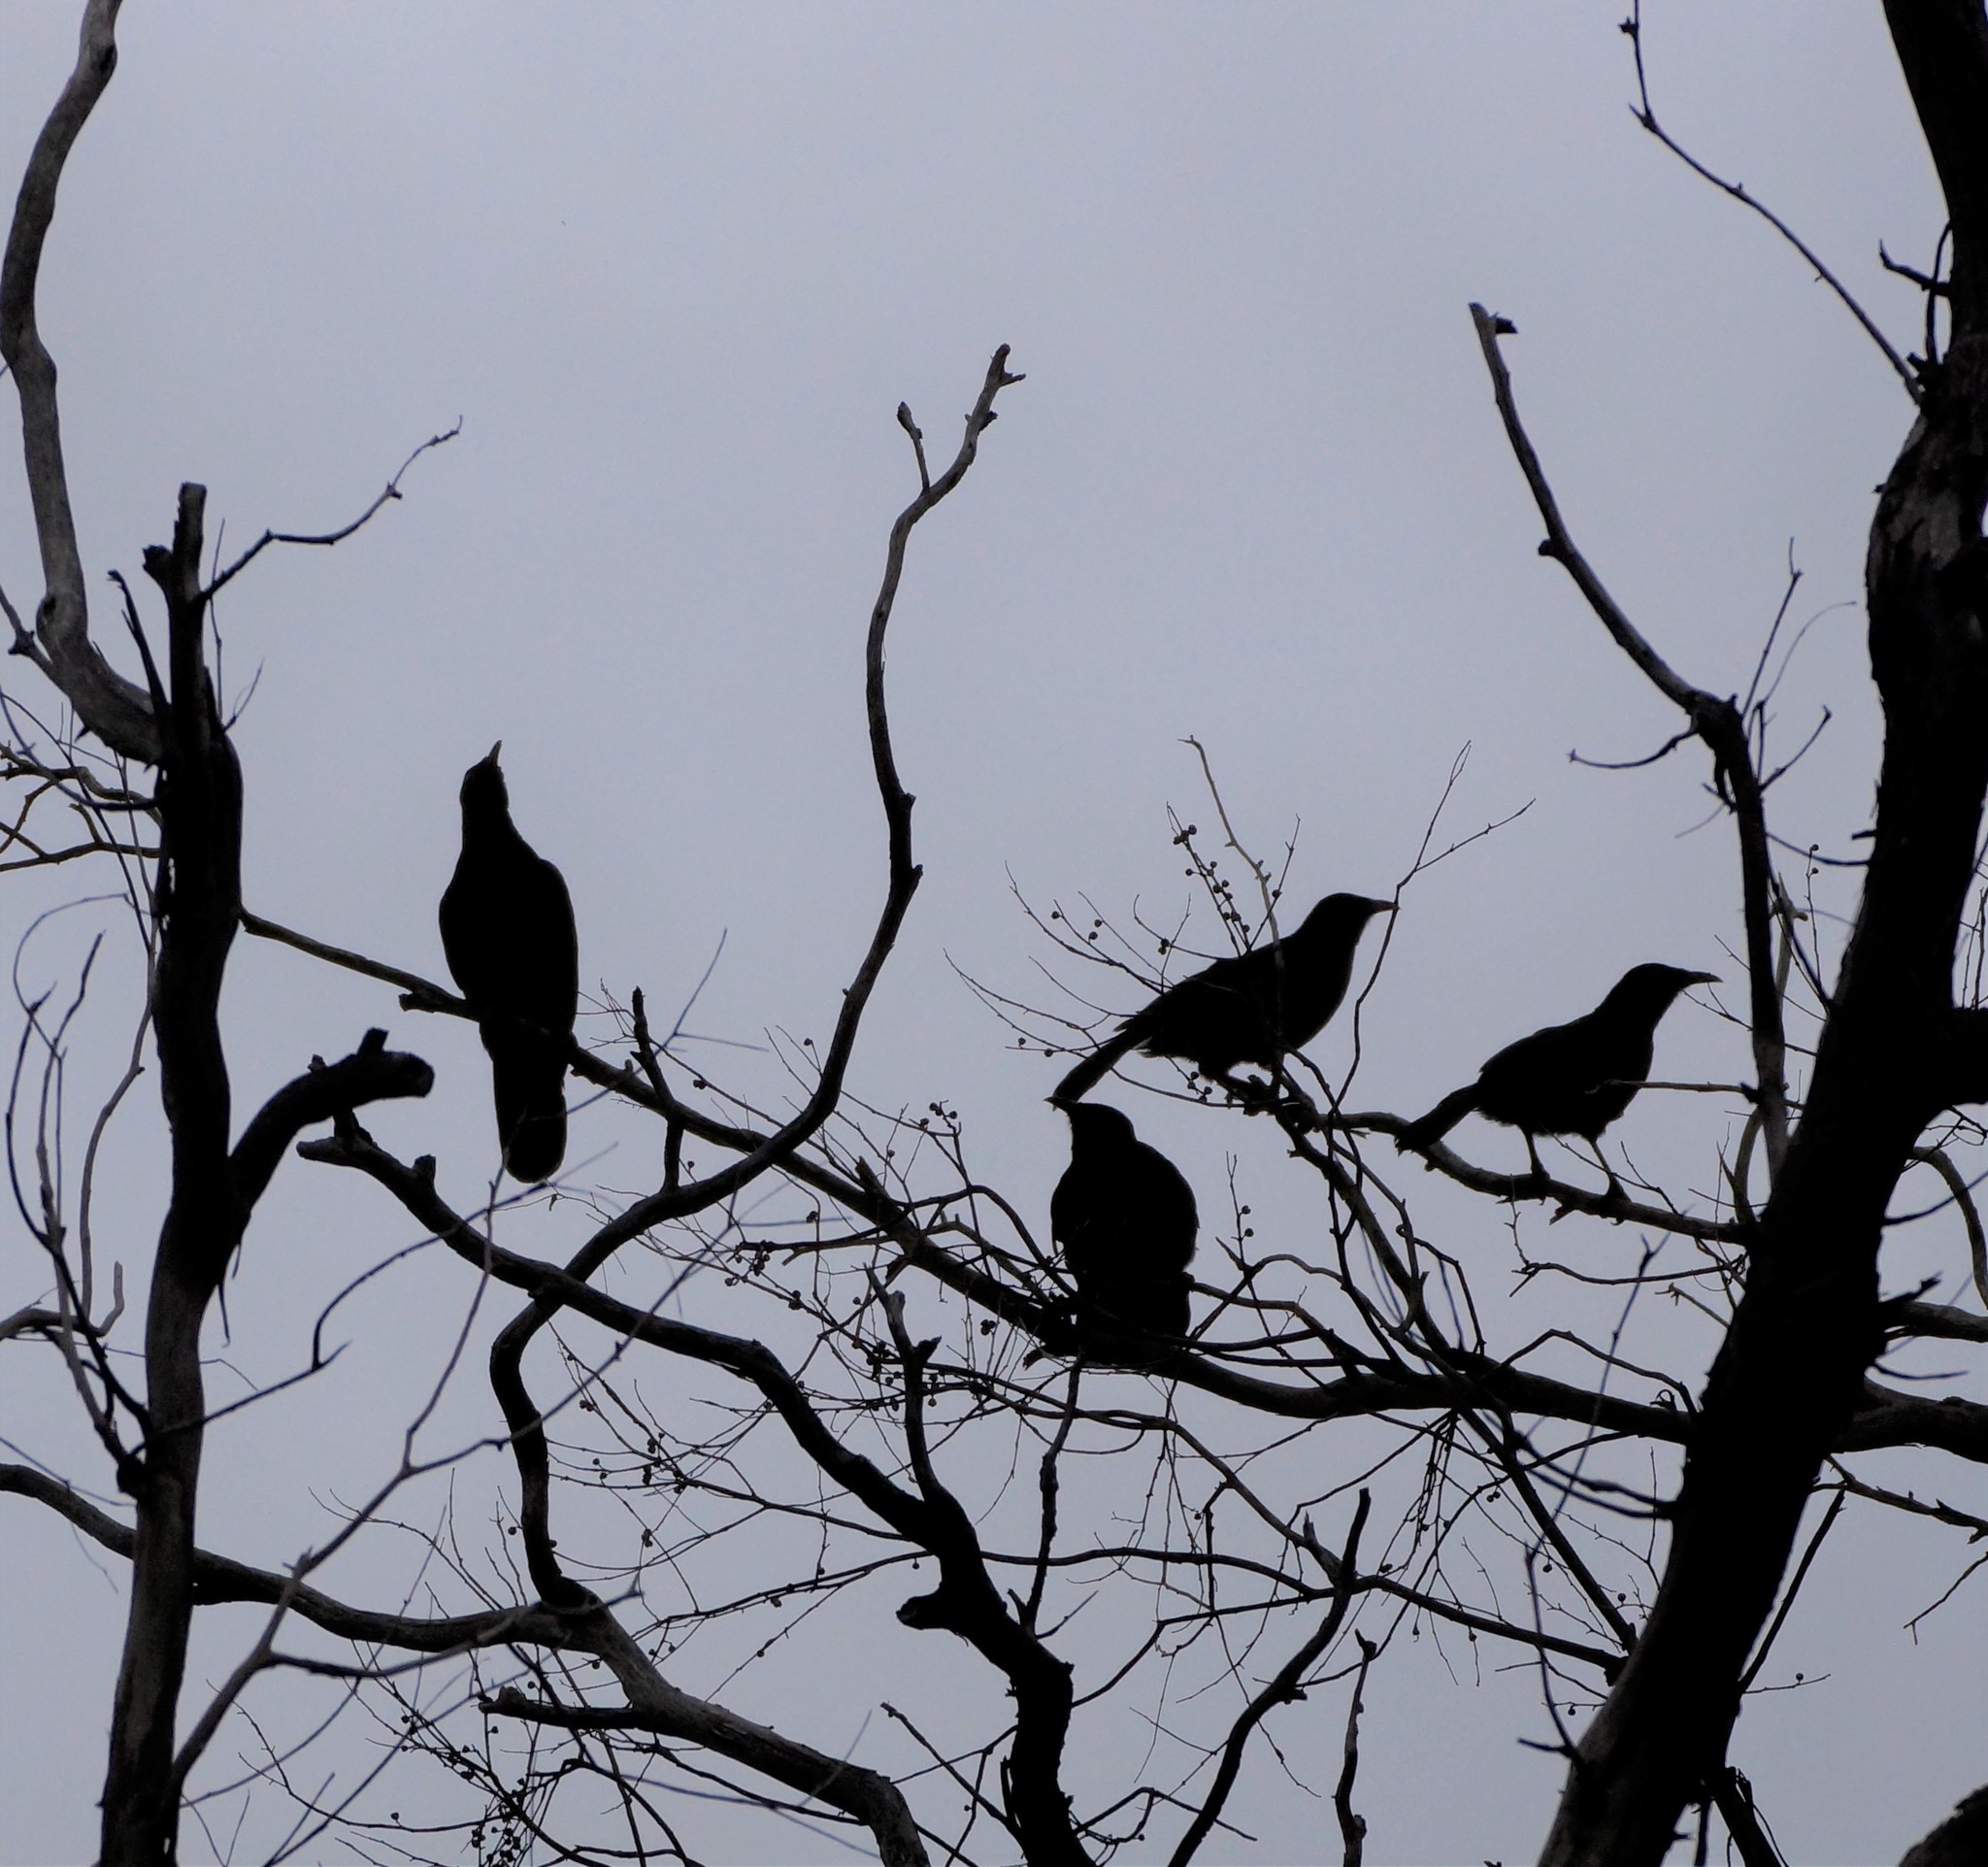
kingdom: Animalia
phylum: Chordata
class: Aves
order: Passeriformes
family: Corcoracidae
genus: Corcorax
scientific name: Corcorax melanoramphos
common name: White-winged chough
